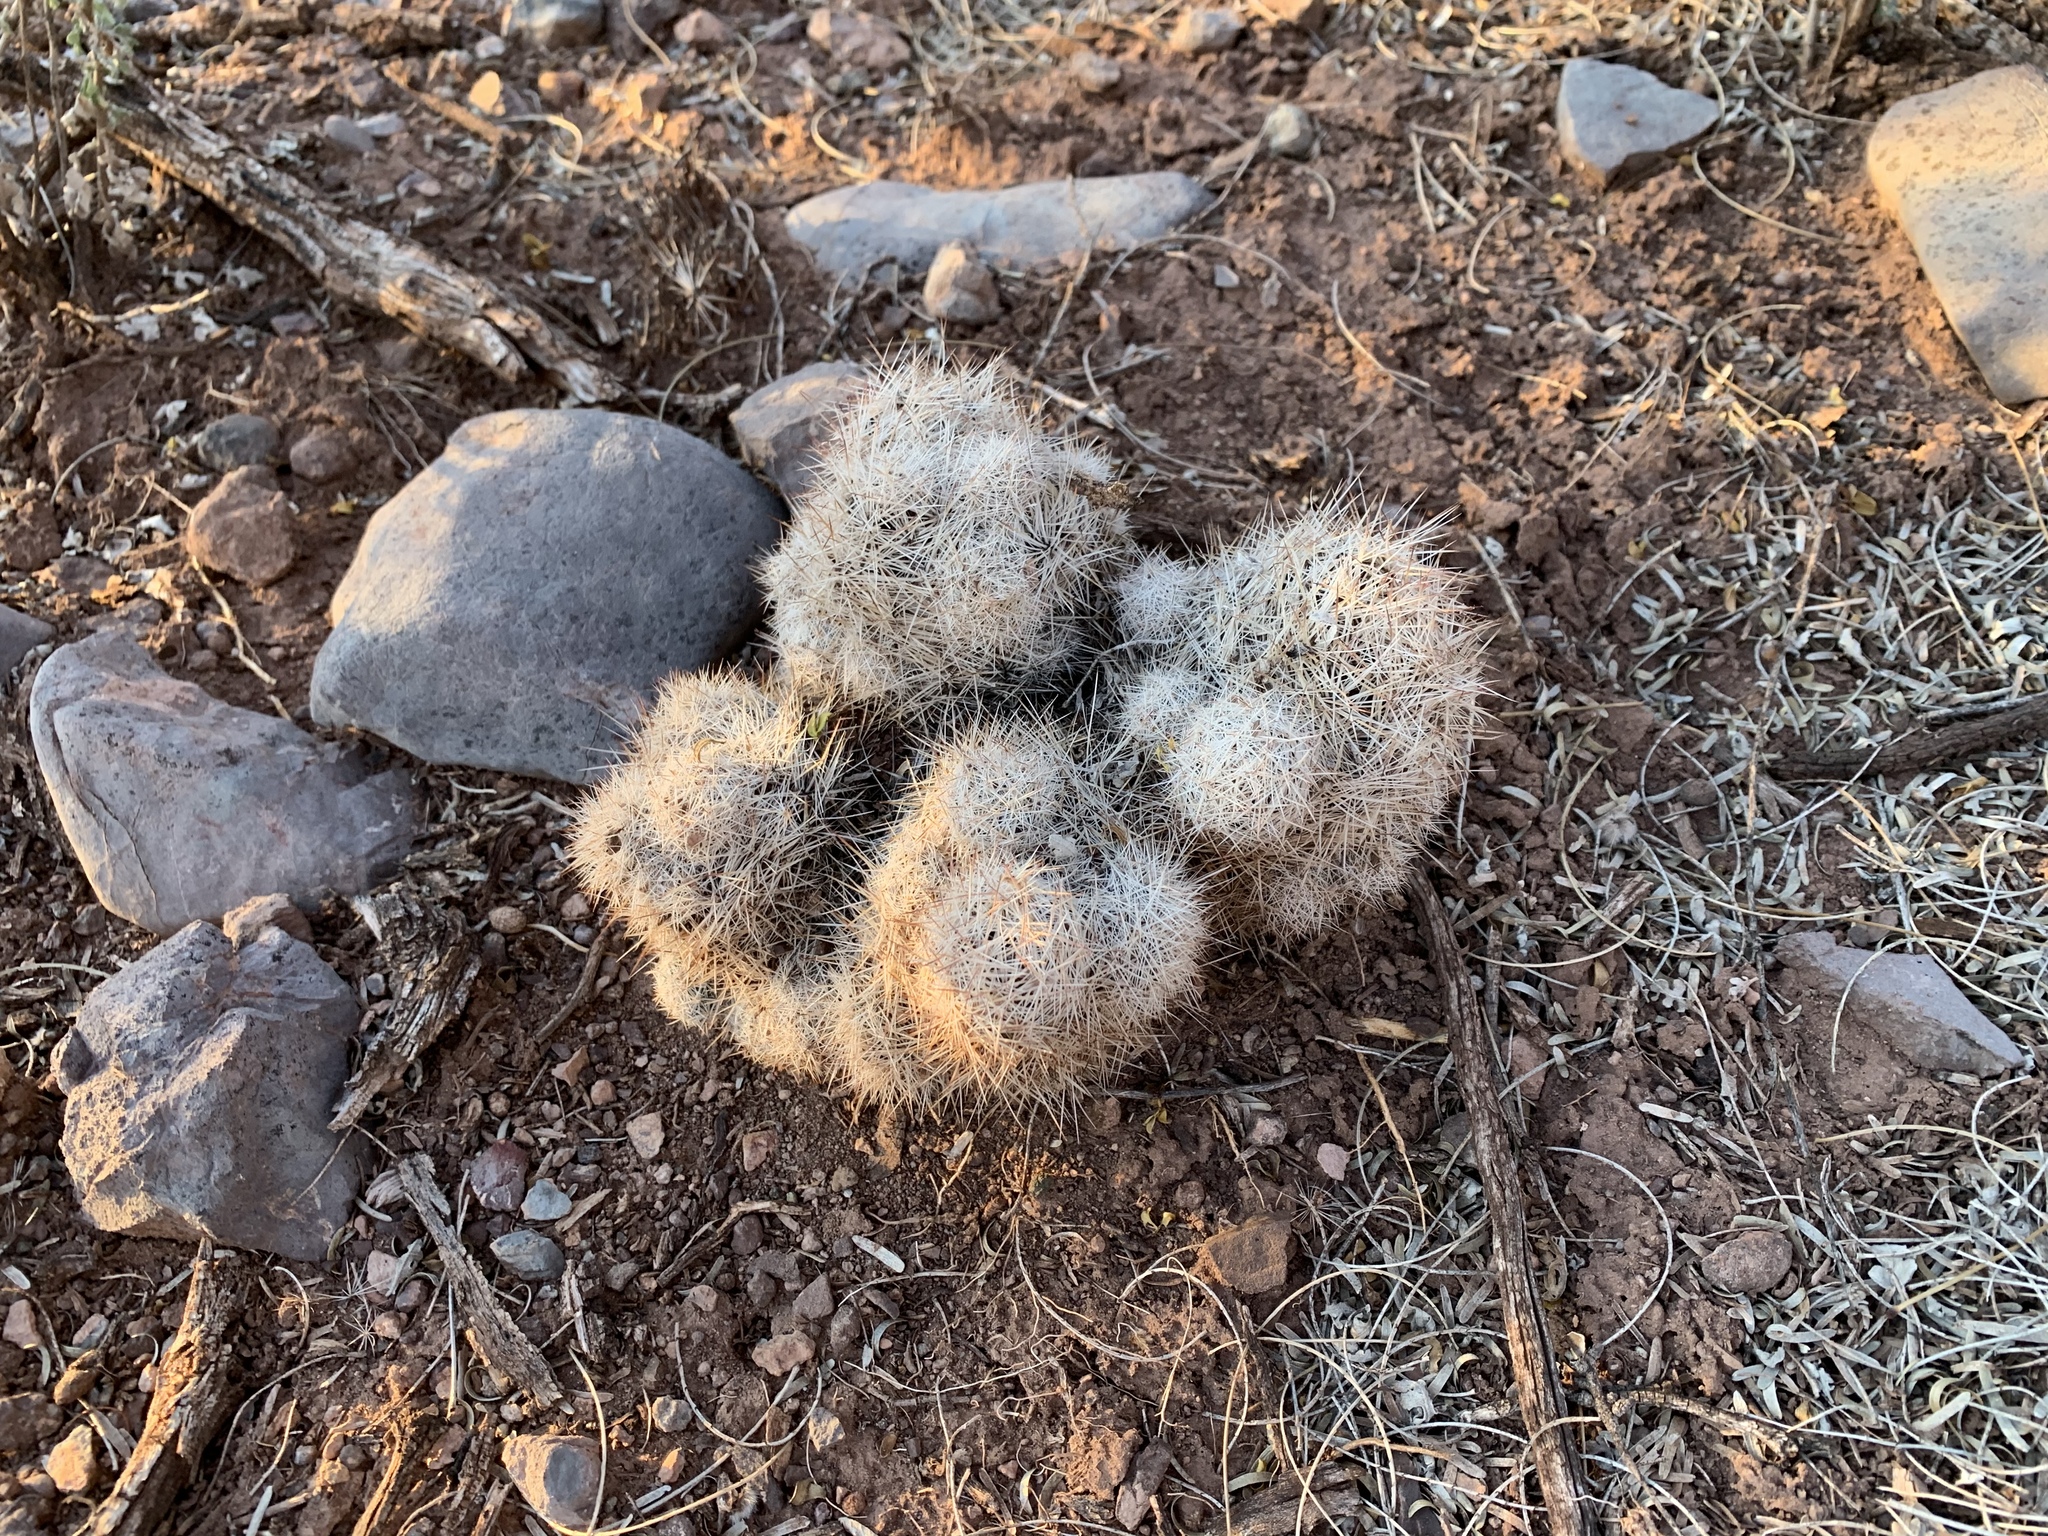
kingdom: Plantae
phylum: Tracheophyta
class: Magnoliopsida
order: Caryophyllales
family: Cactaceae
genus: Pelecyphora
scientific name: Pelecyphora vivipara
